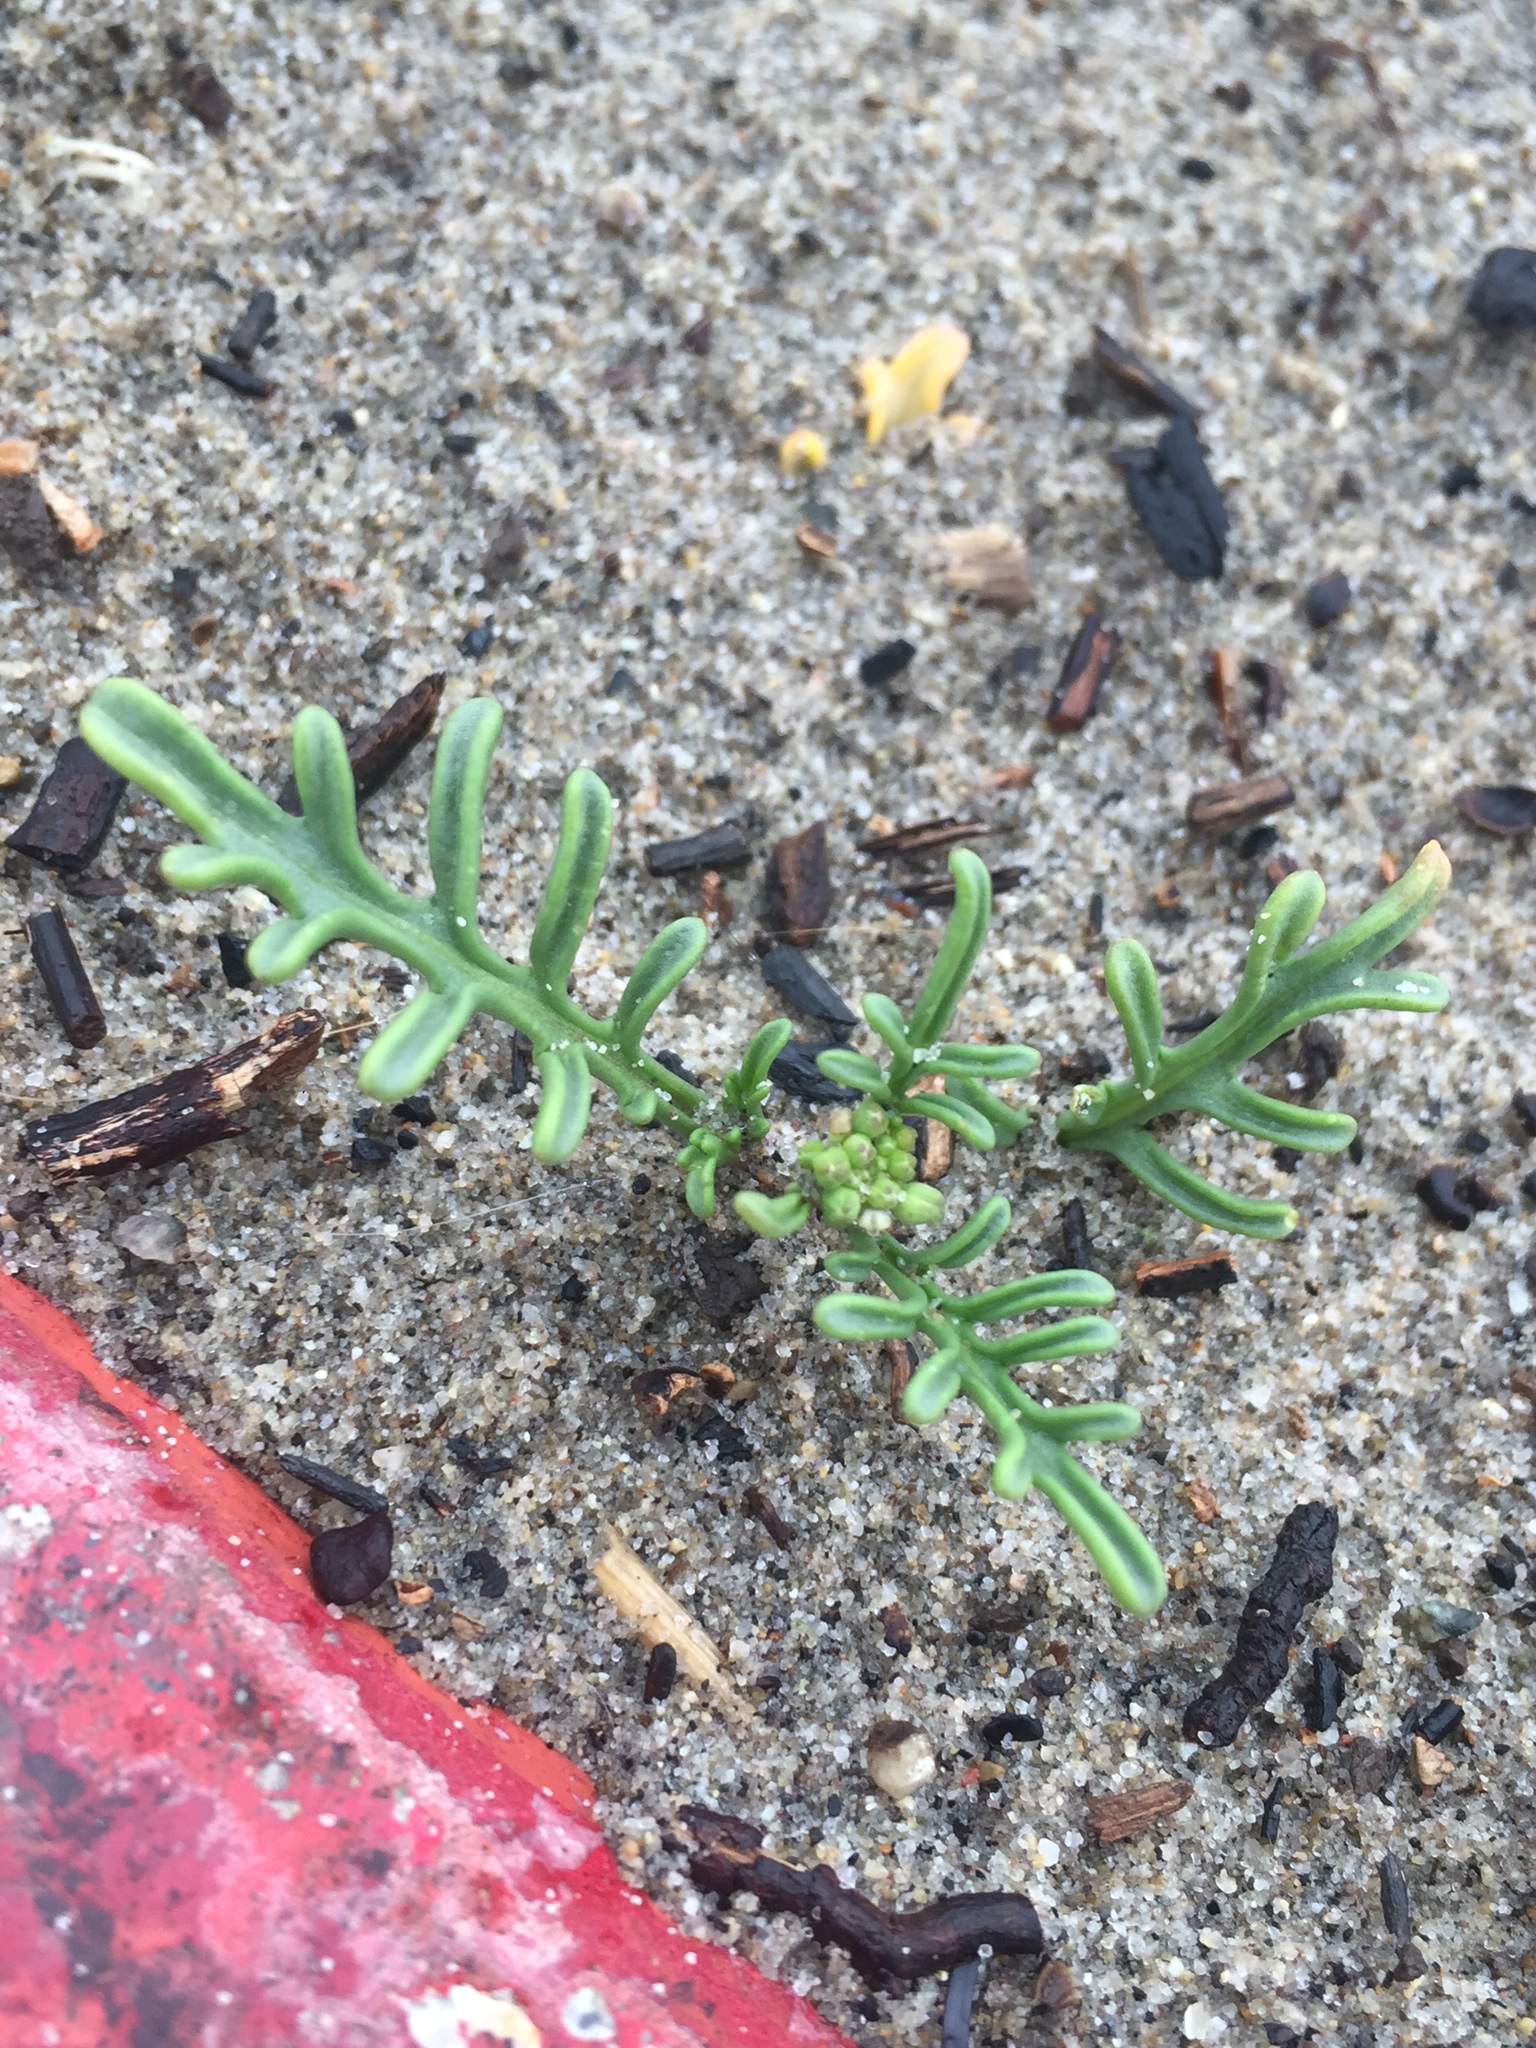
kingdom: Plantae
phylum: Tracheophyta
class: Magnoliopsida
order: Brassicales
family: Brassicaceae
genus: Cakile
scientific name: Cakile maritima
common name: Sea rocket
